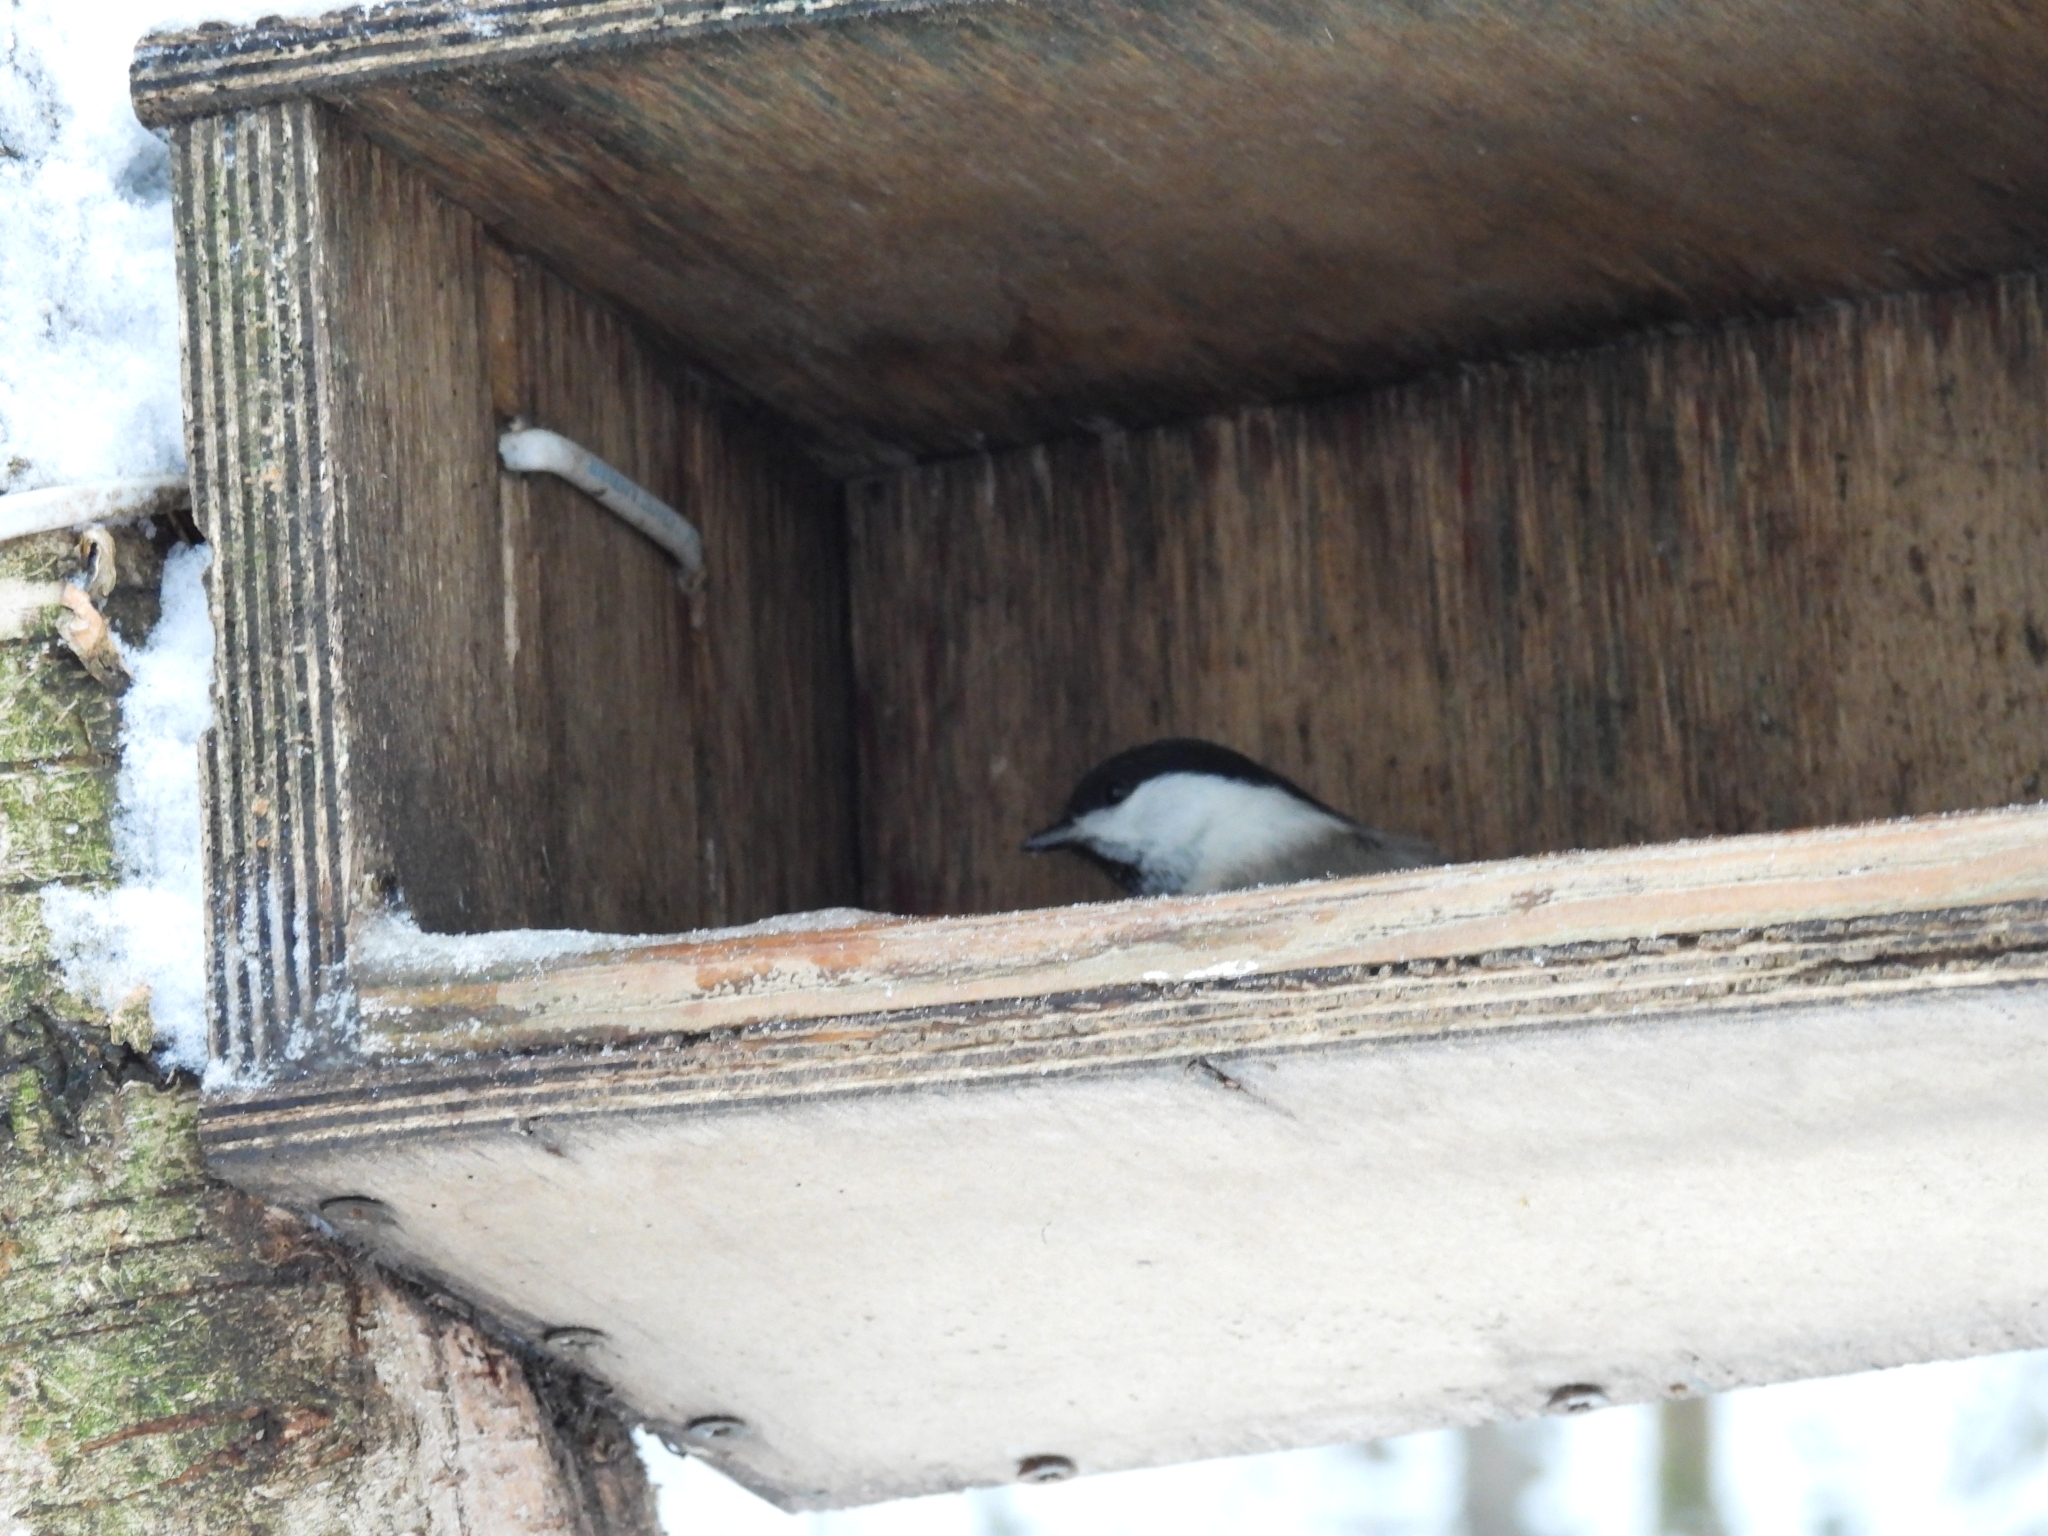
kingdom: Animalia
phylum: Chordata
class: Aves
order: Passeriformes
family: Paridae
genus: Poecile
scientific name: Poecile montanus
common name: Willow tit
